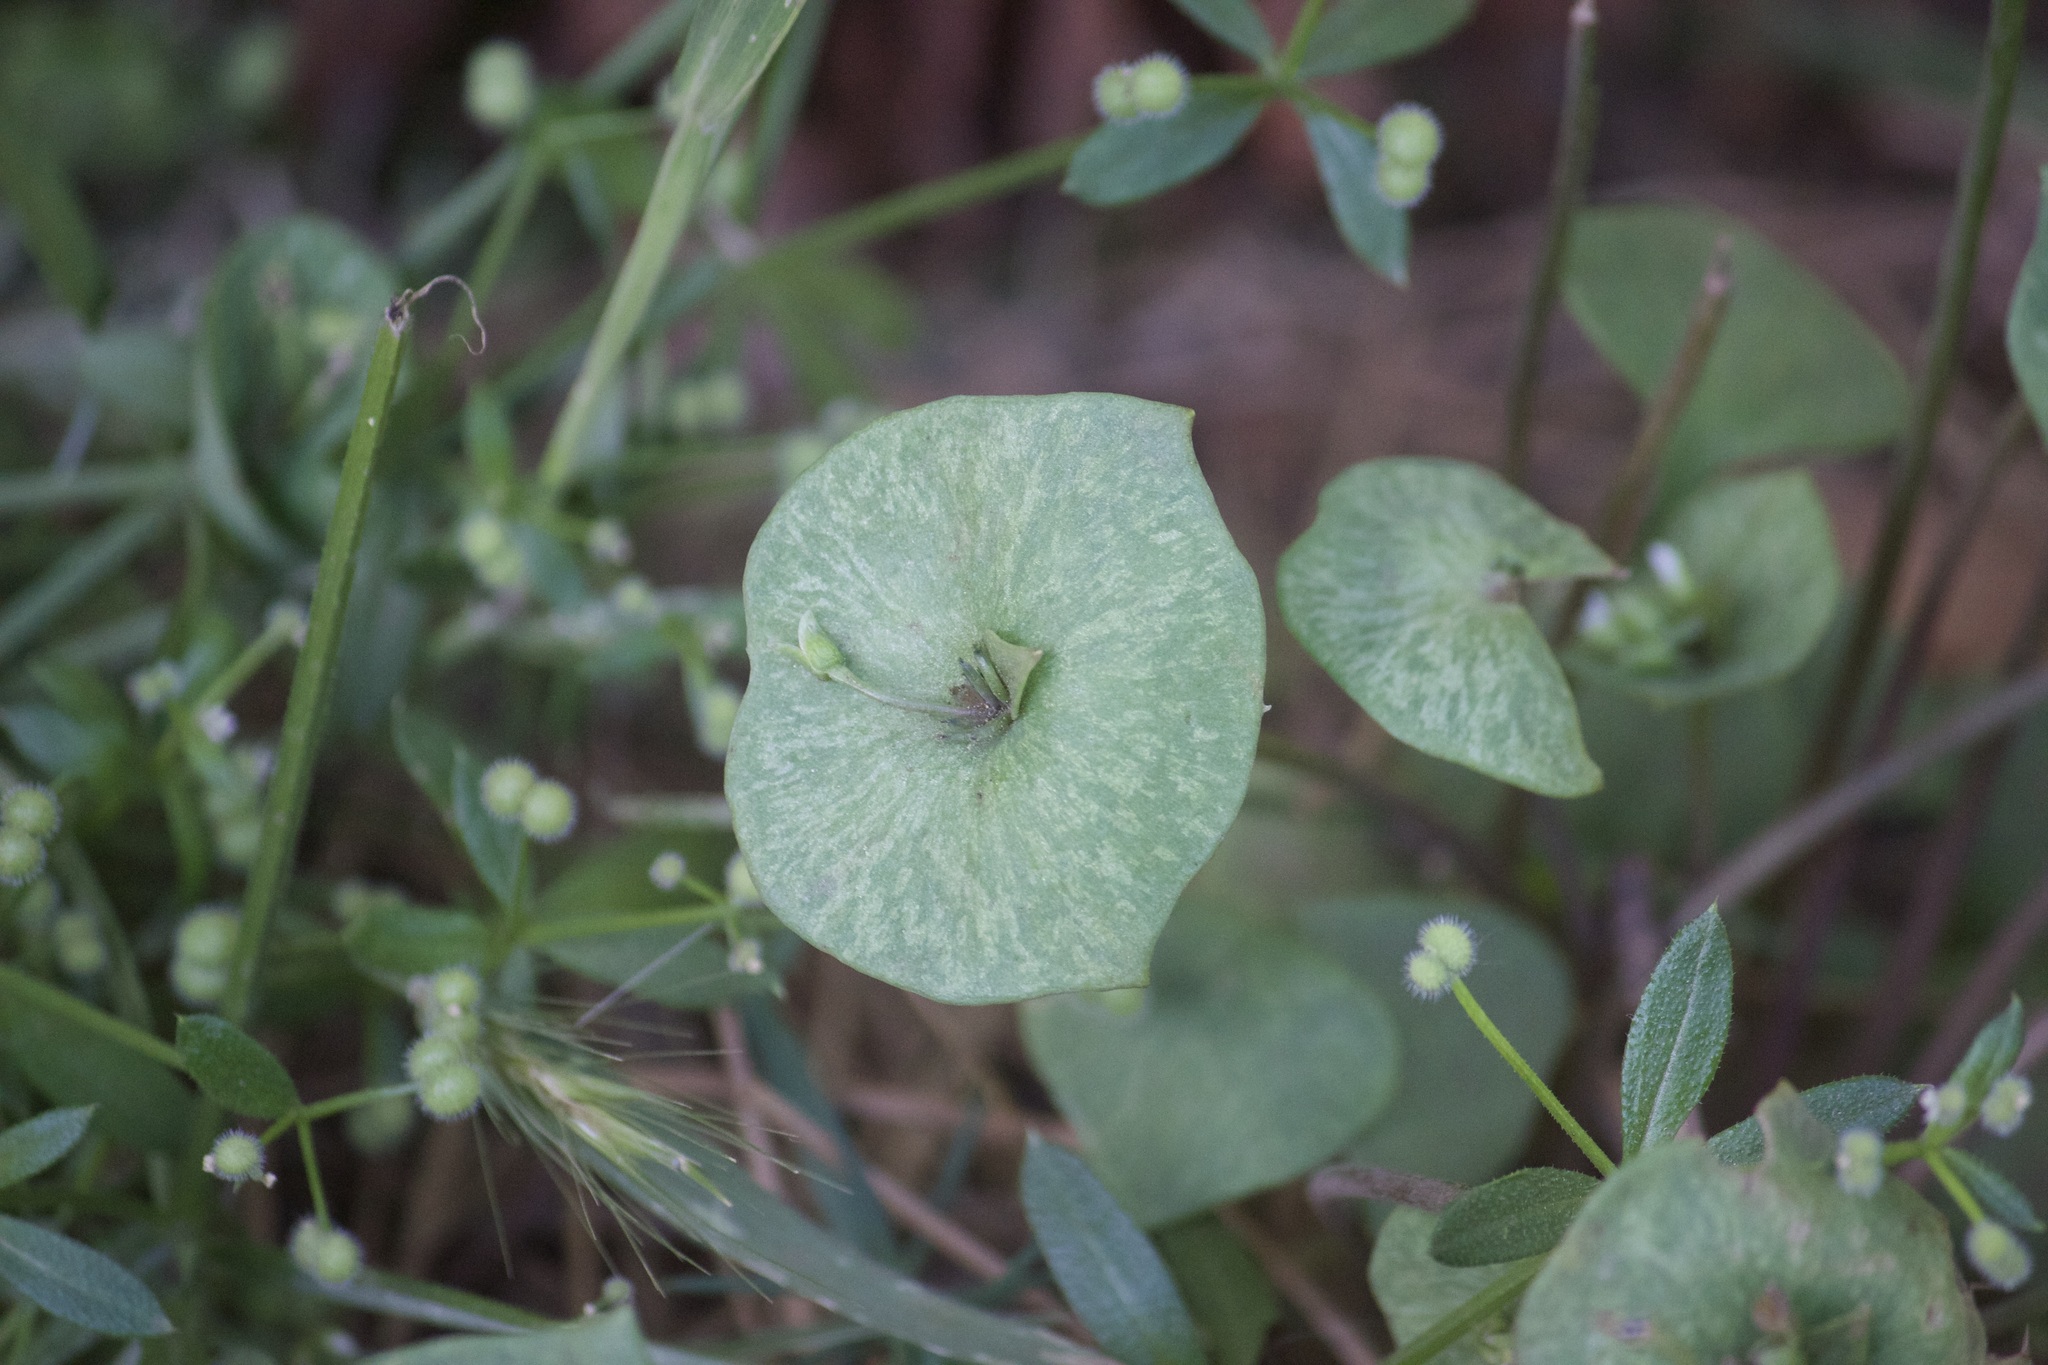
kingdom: Plantae
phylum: Tracheophyta
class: Magnoliopsida
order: Caryophyllales
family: Montiaceae
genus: Claytonia
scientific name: Claytonia perfoliata
